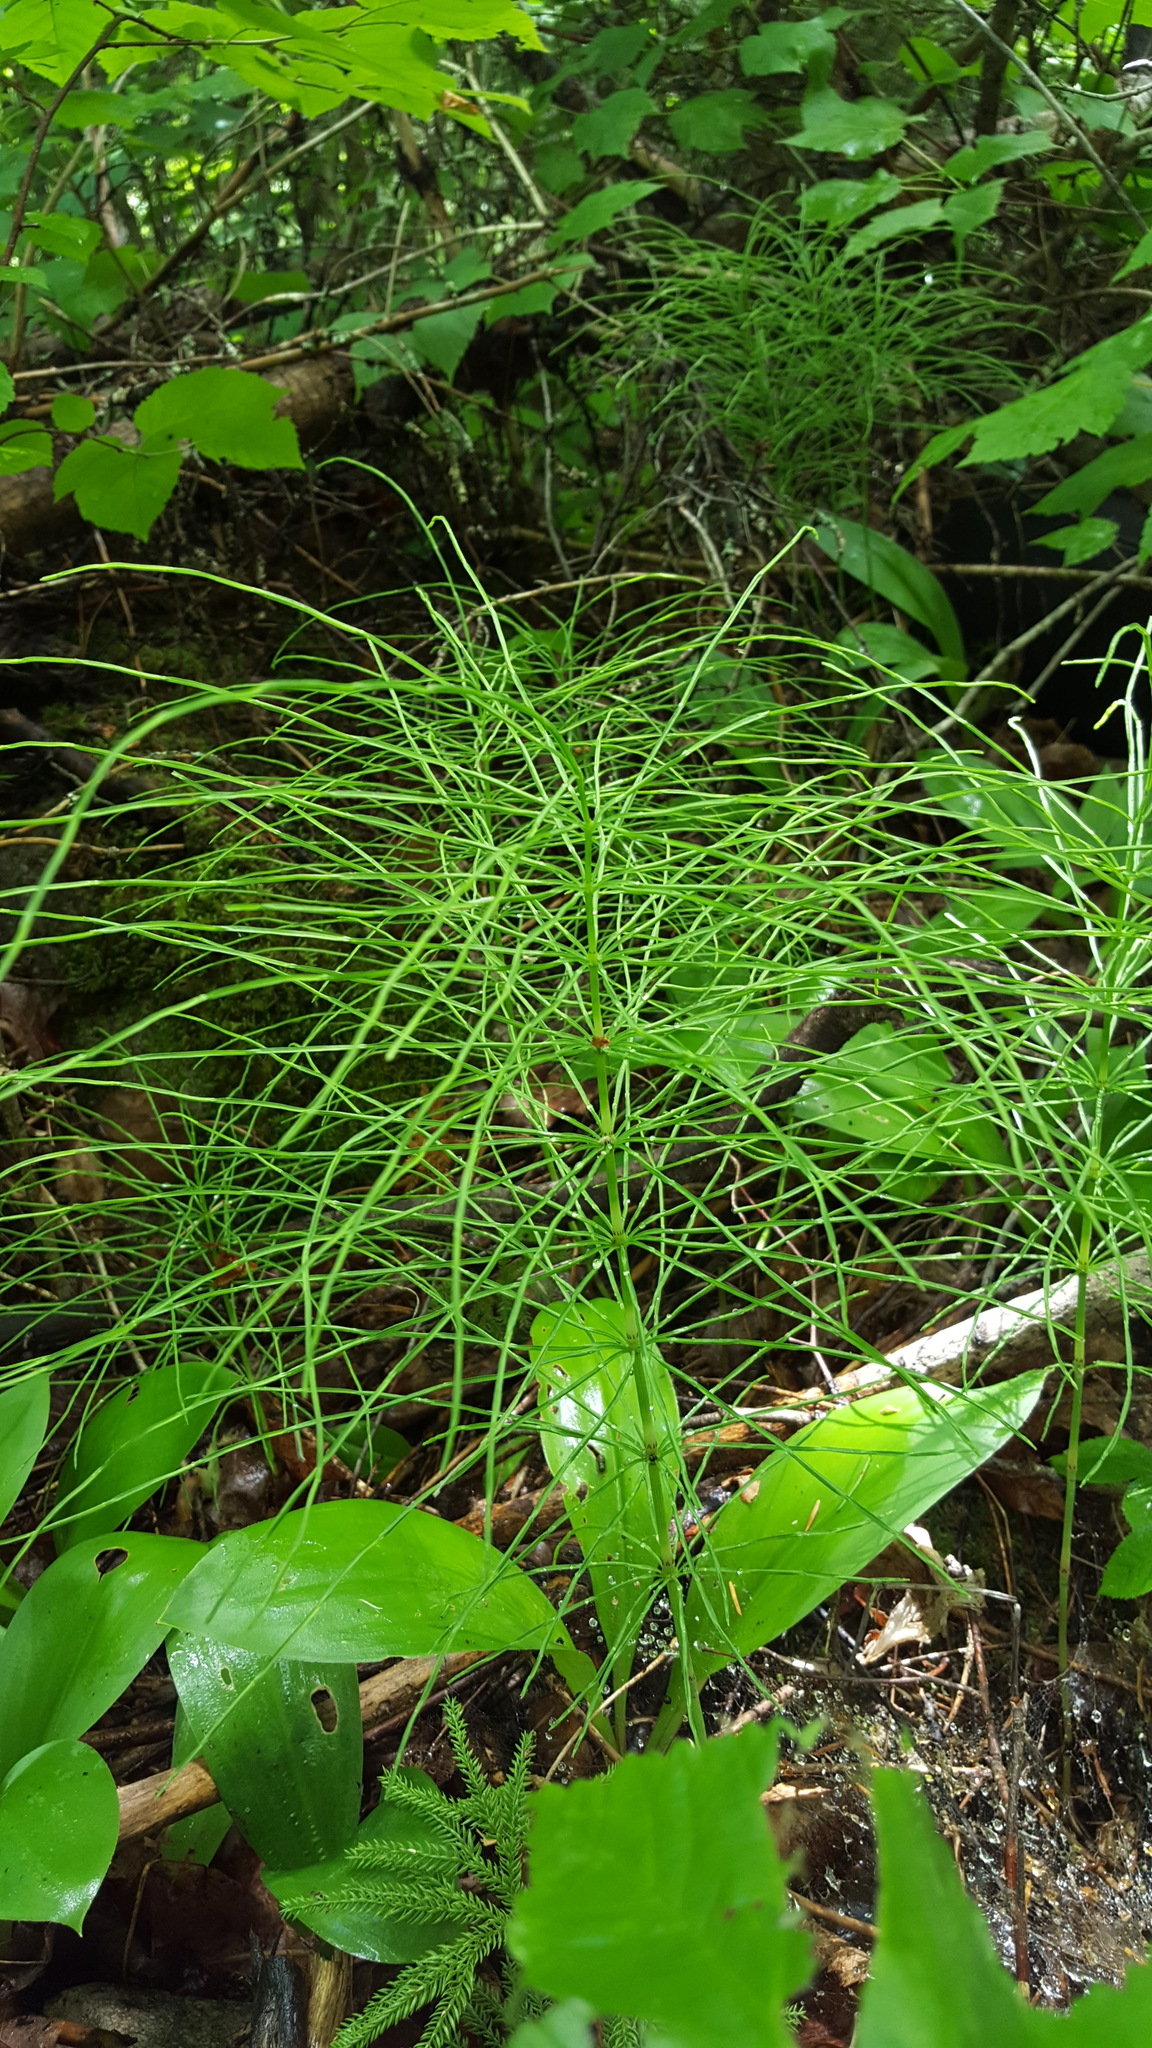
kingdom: Plantae
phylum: Tracheophyta
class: Polypodiopsida
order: Equisetales
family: Equisetaceae
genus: Equisetum
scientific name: Equisetum pratense
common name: Meadow horsetail
